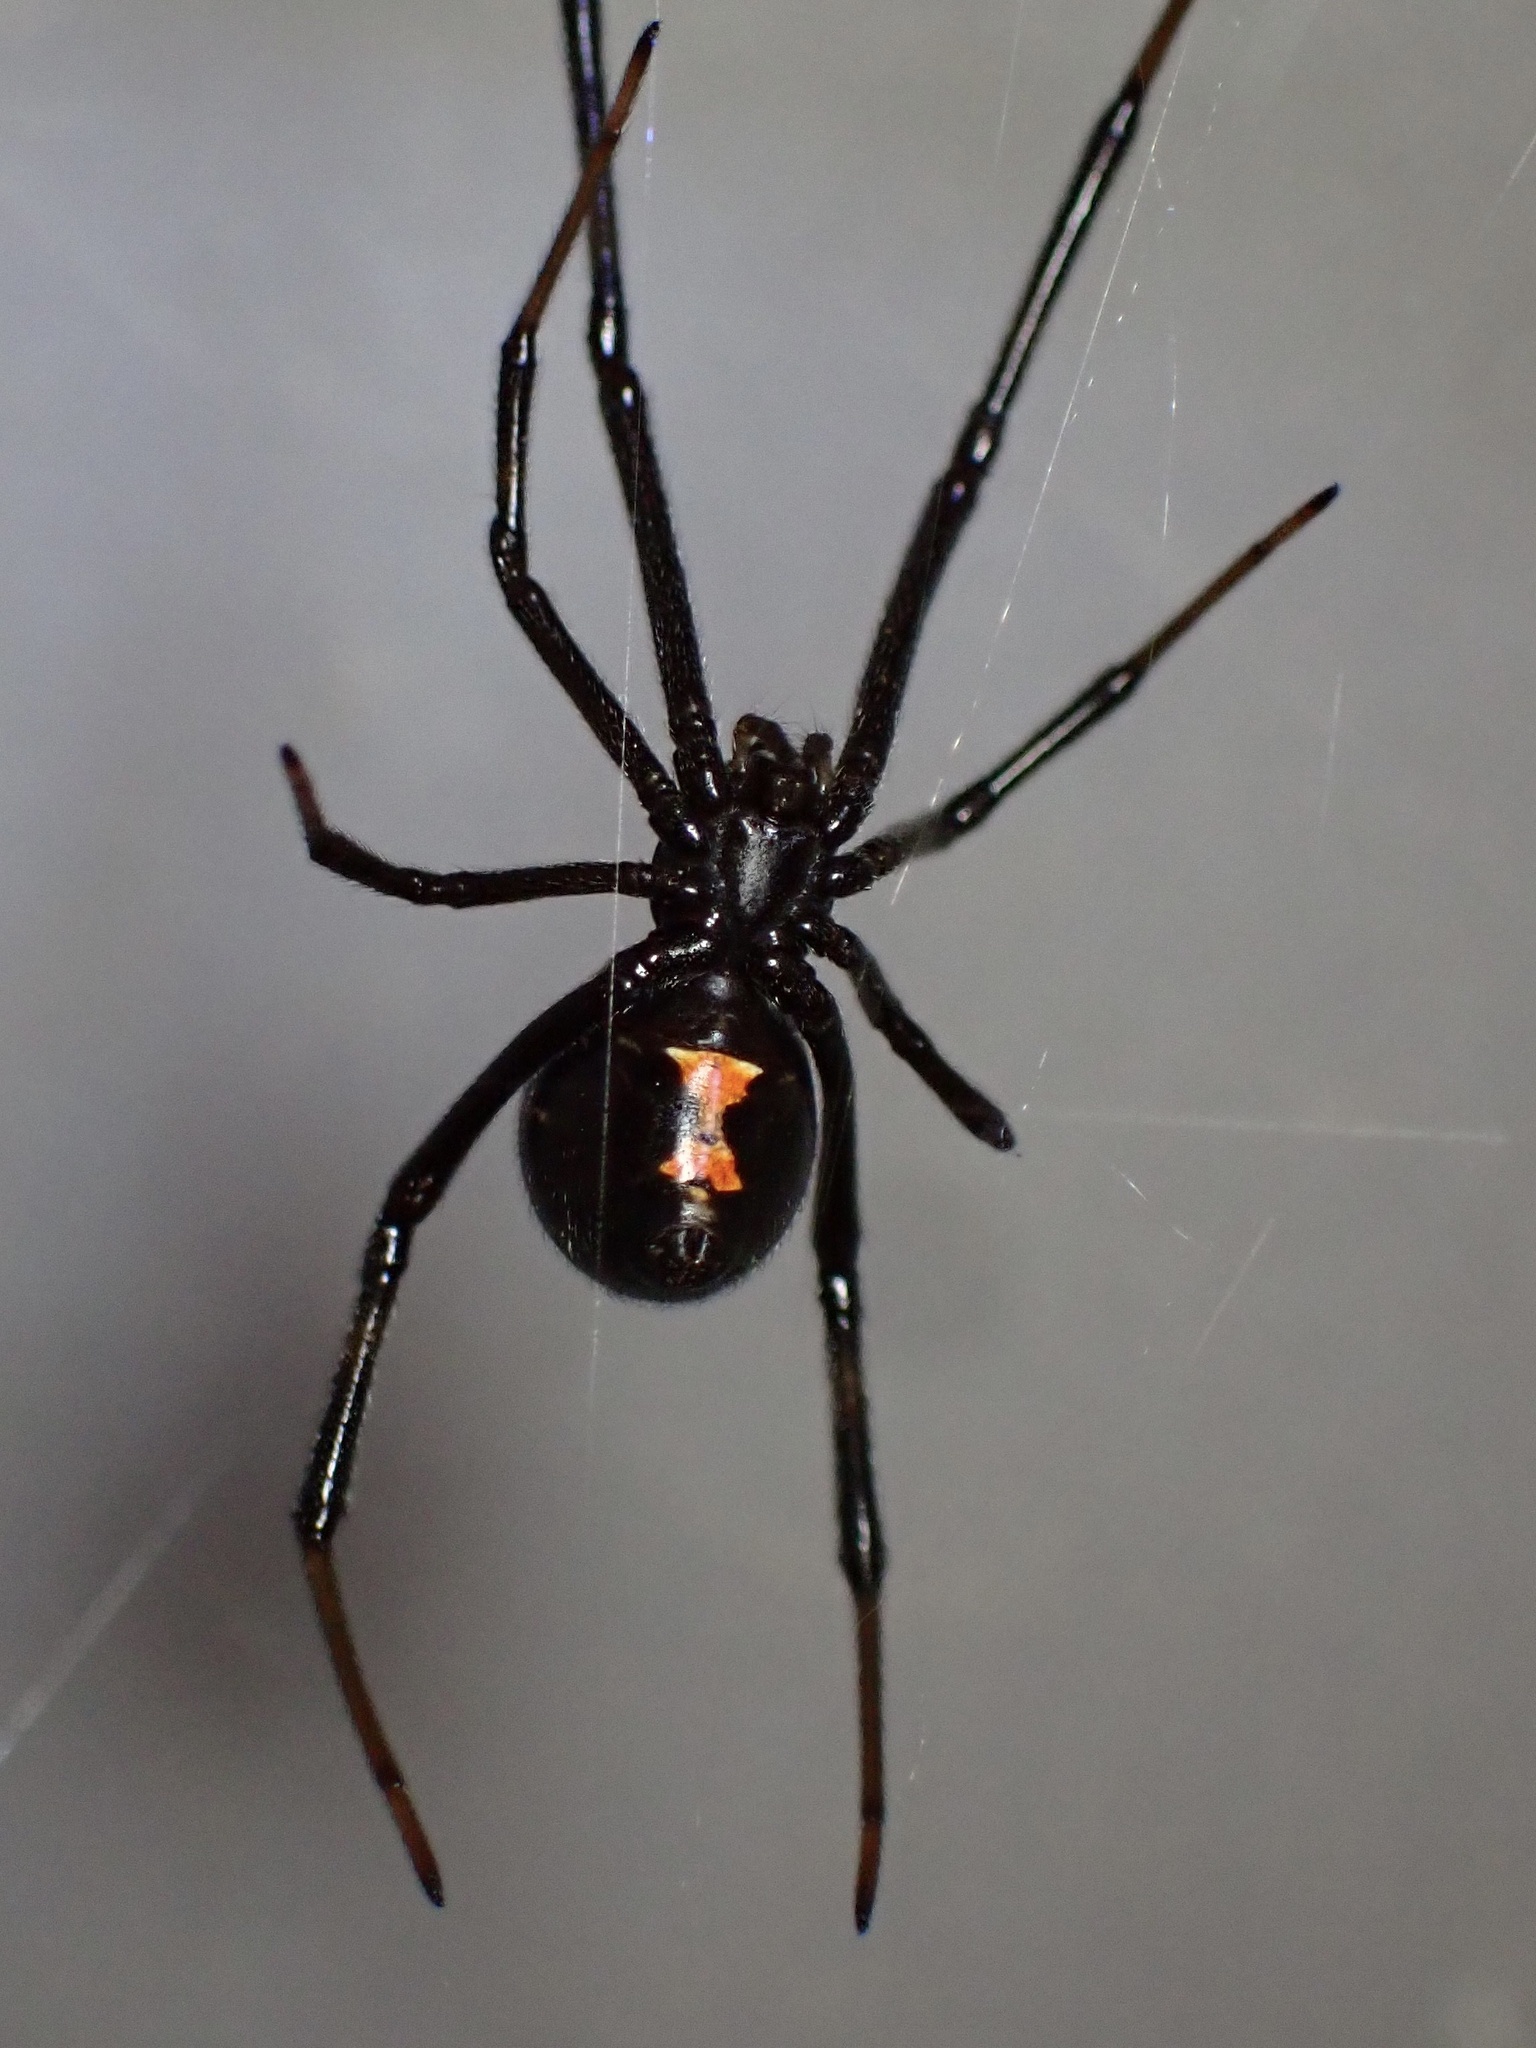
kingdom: Animalia
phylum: Arthropoda
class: Arachnida
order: Araneae
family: Theridiidae
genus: Latrodectus
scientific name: Latrodectus hesperus
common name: Western black widow
